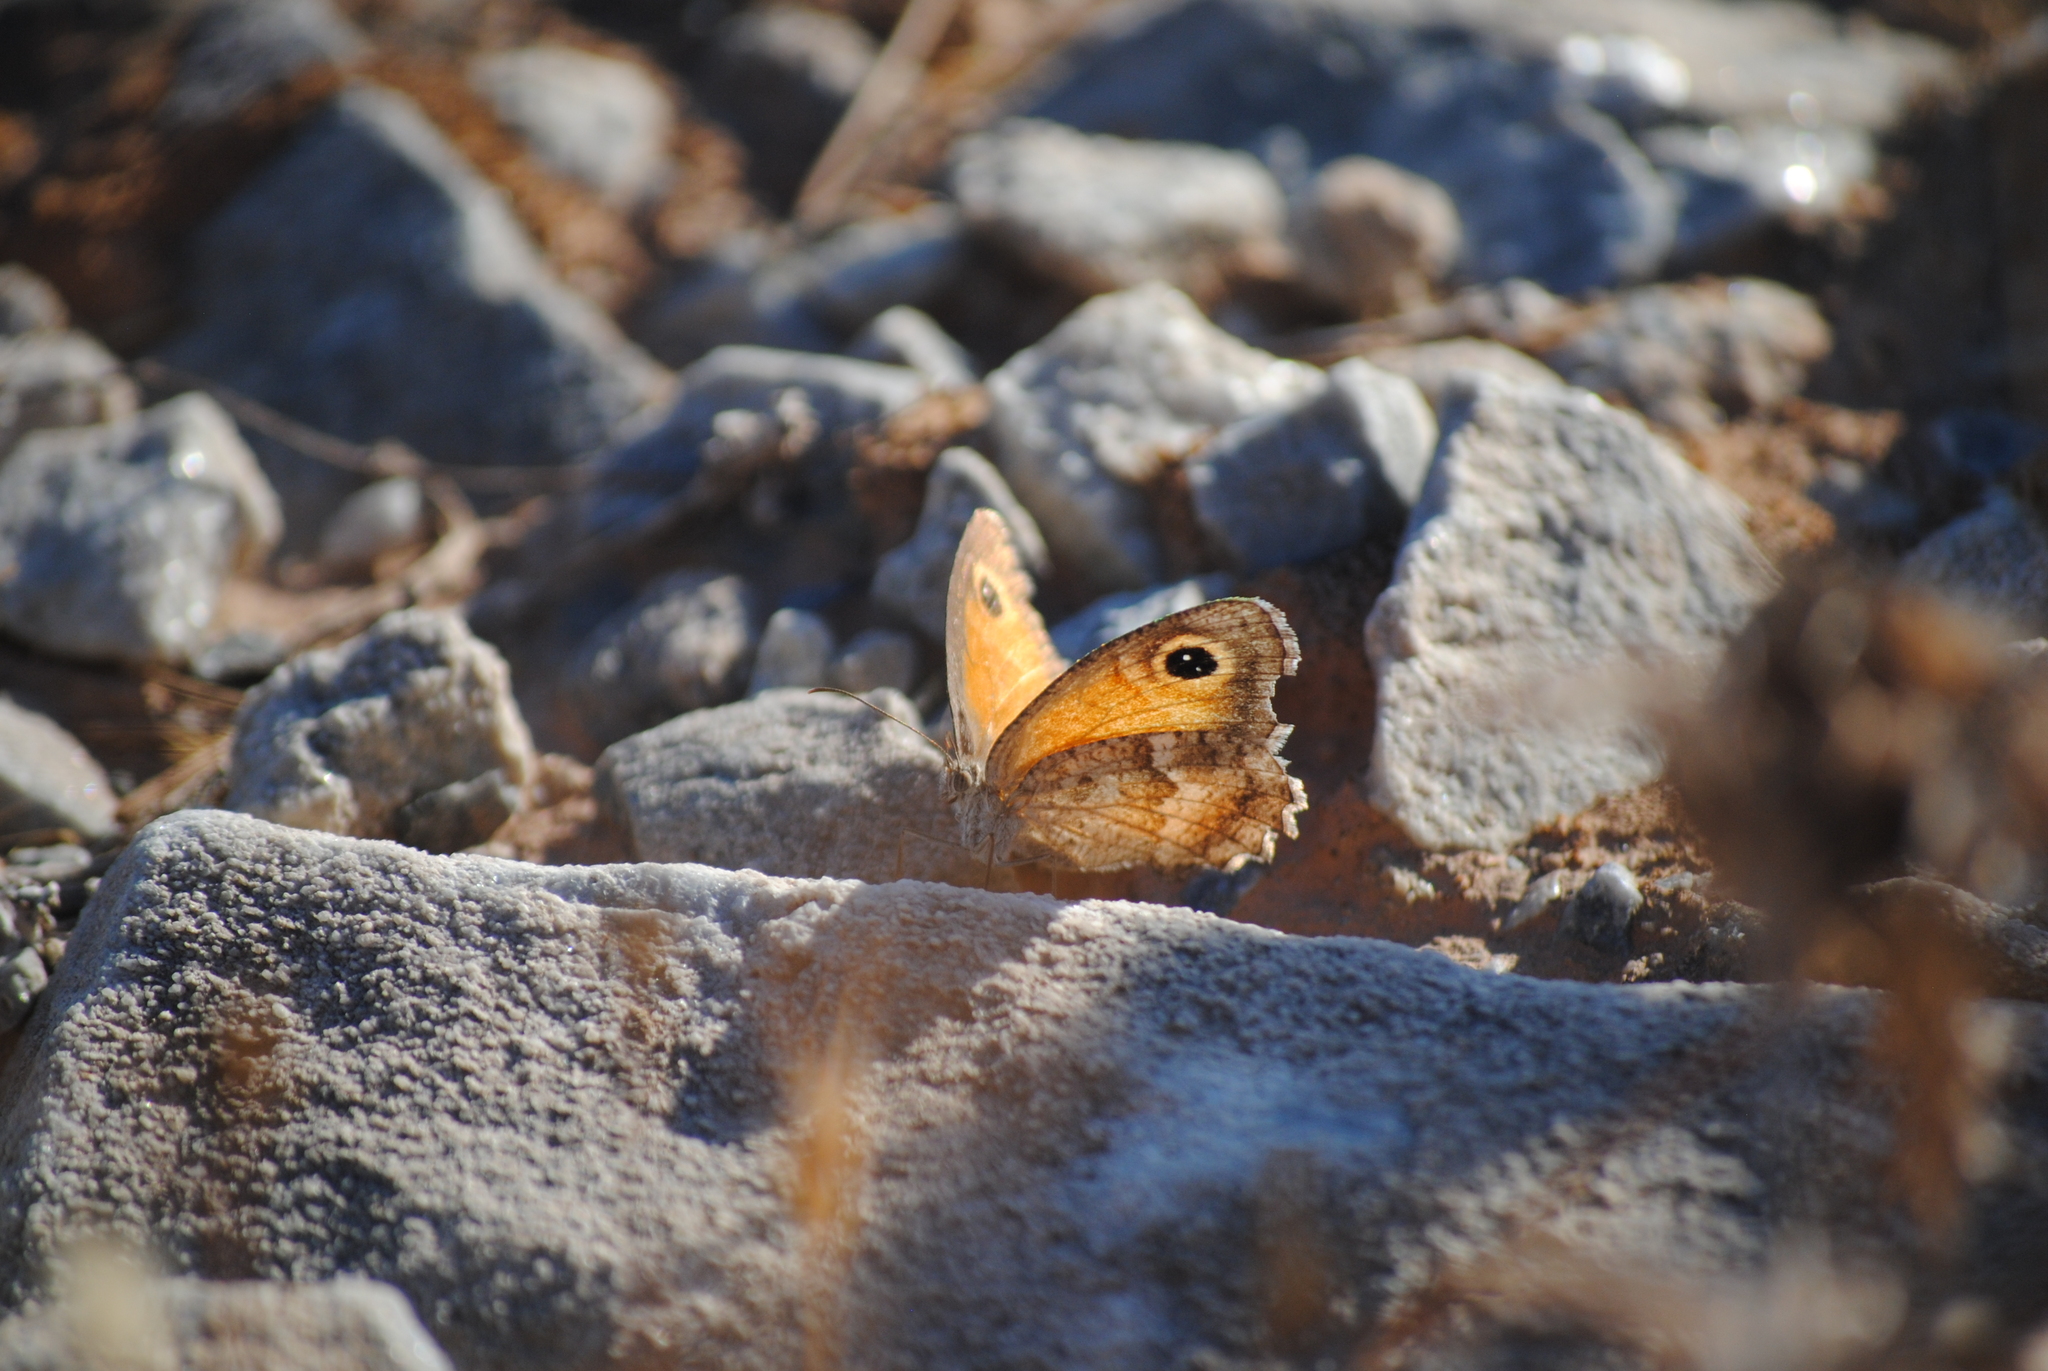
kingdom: Animalia
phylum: Arthropoda
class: Insecta
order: Lepidoptera
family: Nymphalidae
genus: Pyronia
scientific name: Pyronia cecilia
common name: Southern gatekeeper
